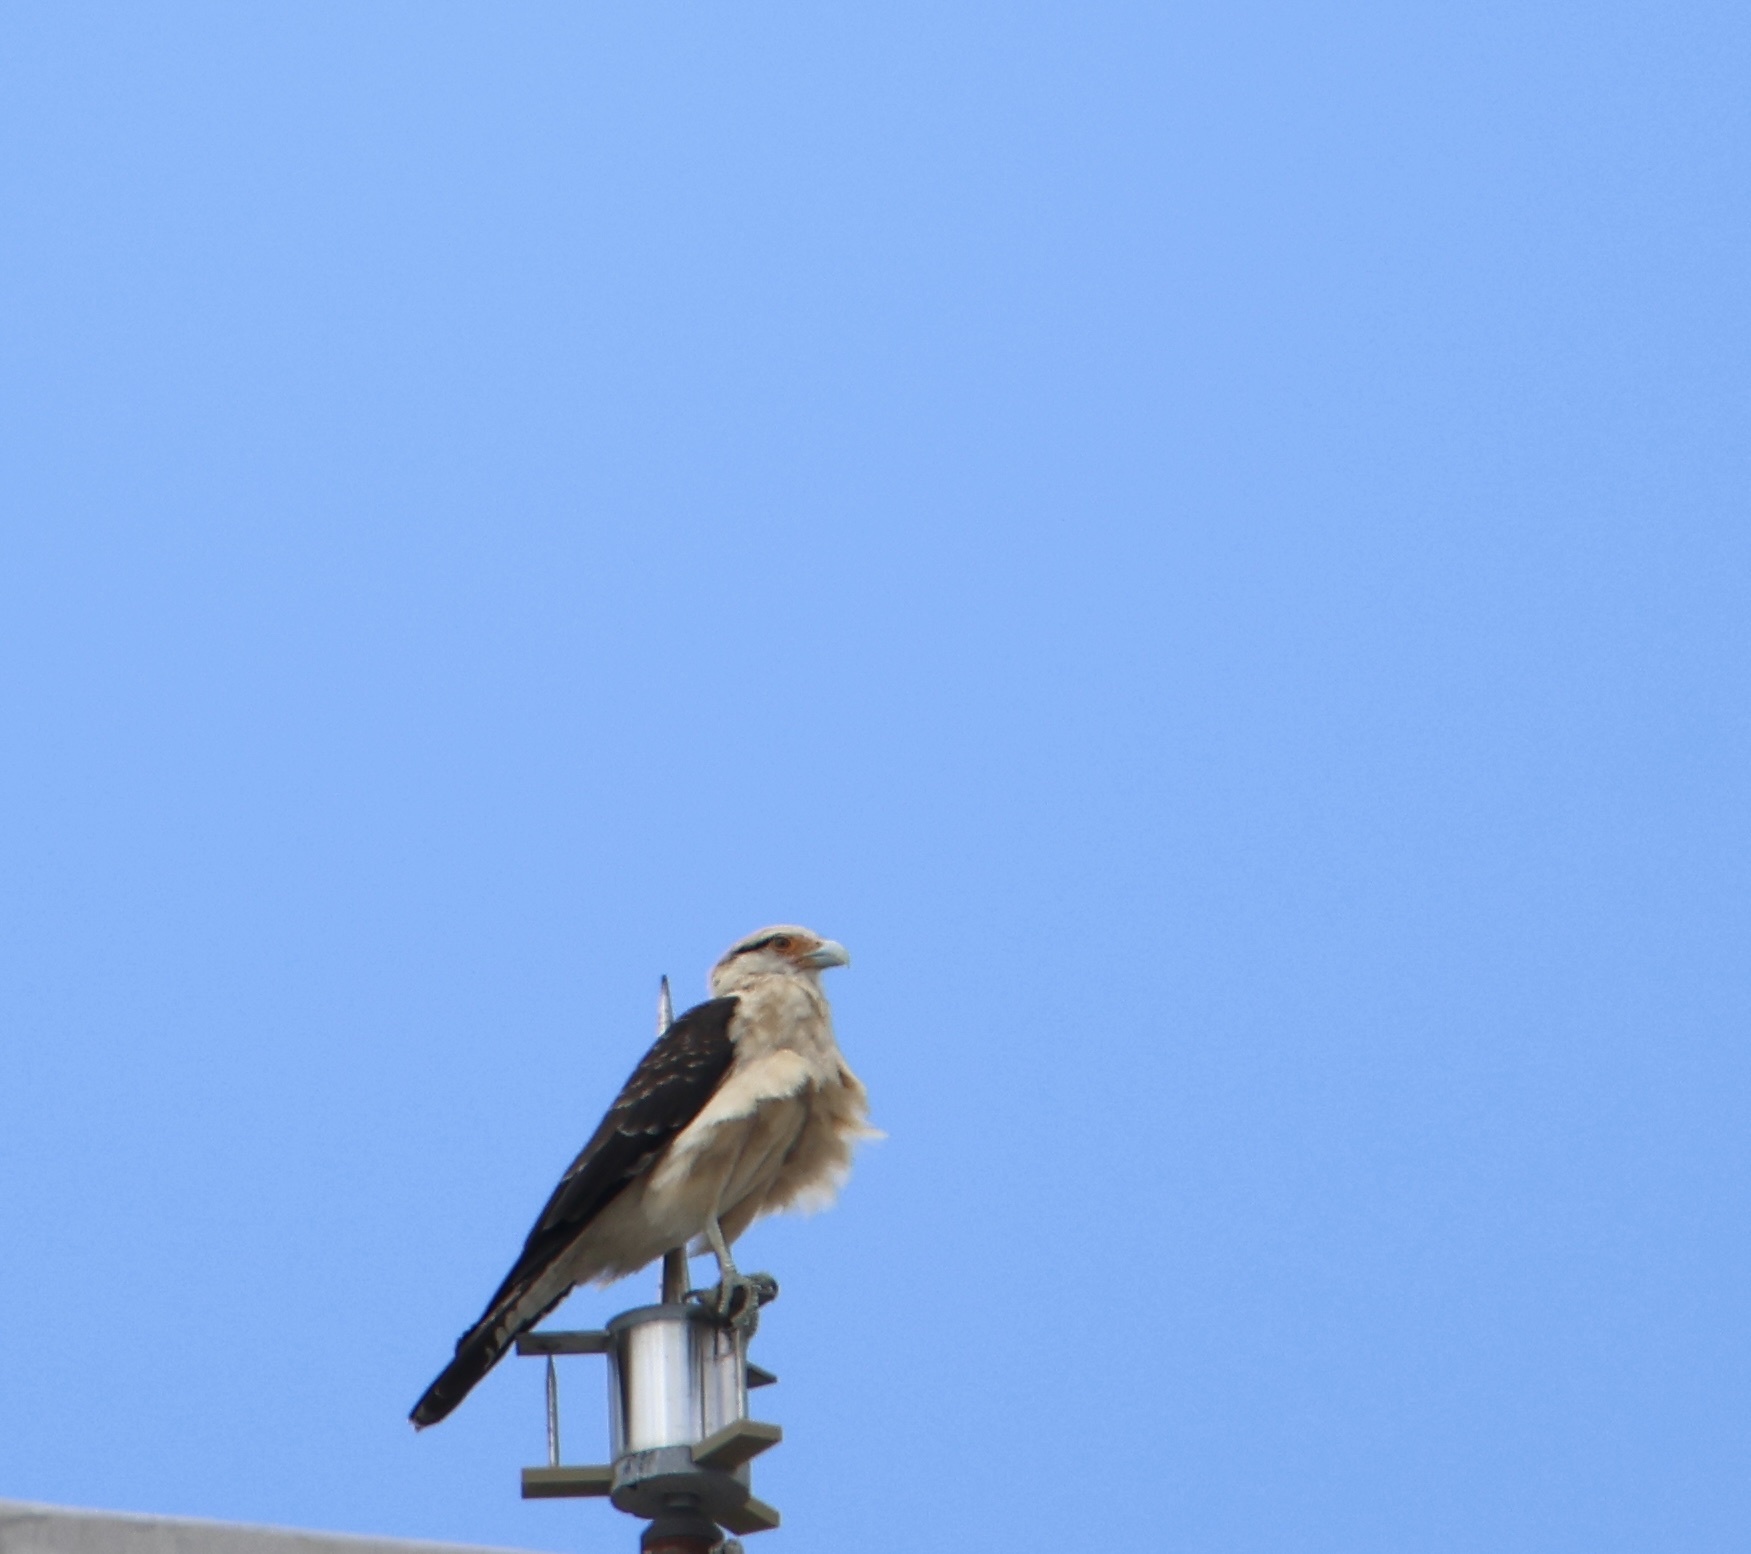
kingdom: Animalia
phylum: Chordata
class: Aves
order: Falconiformes
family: Falconidae
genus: Daptrius
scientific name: Daptrius
